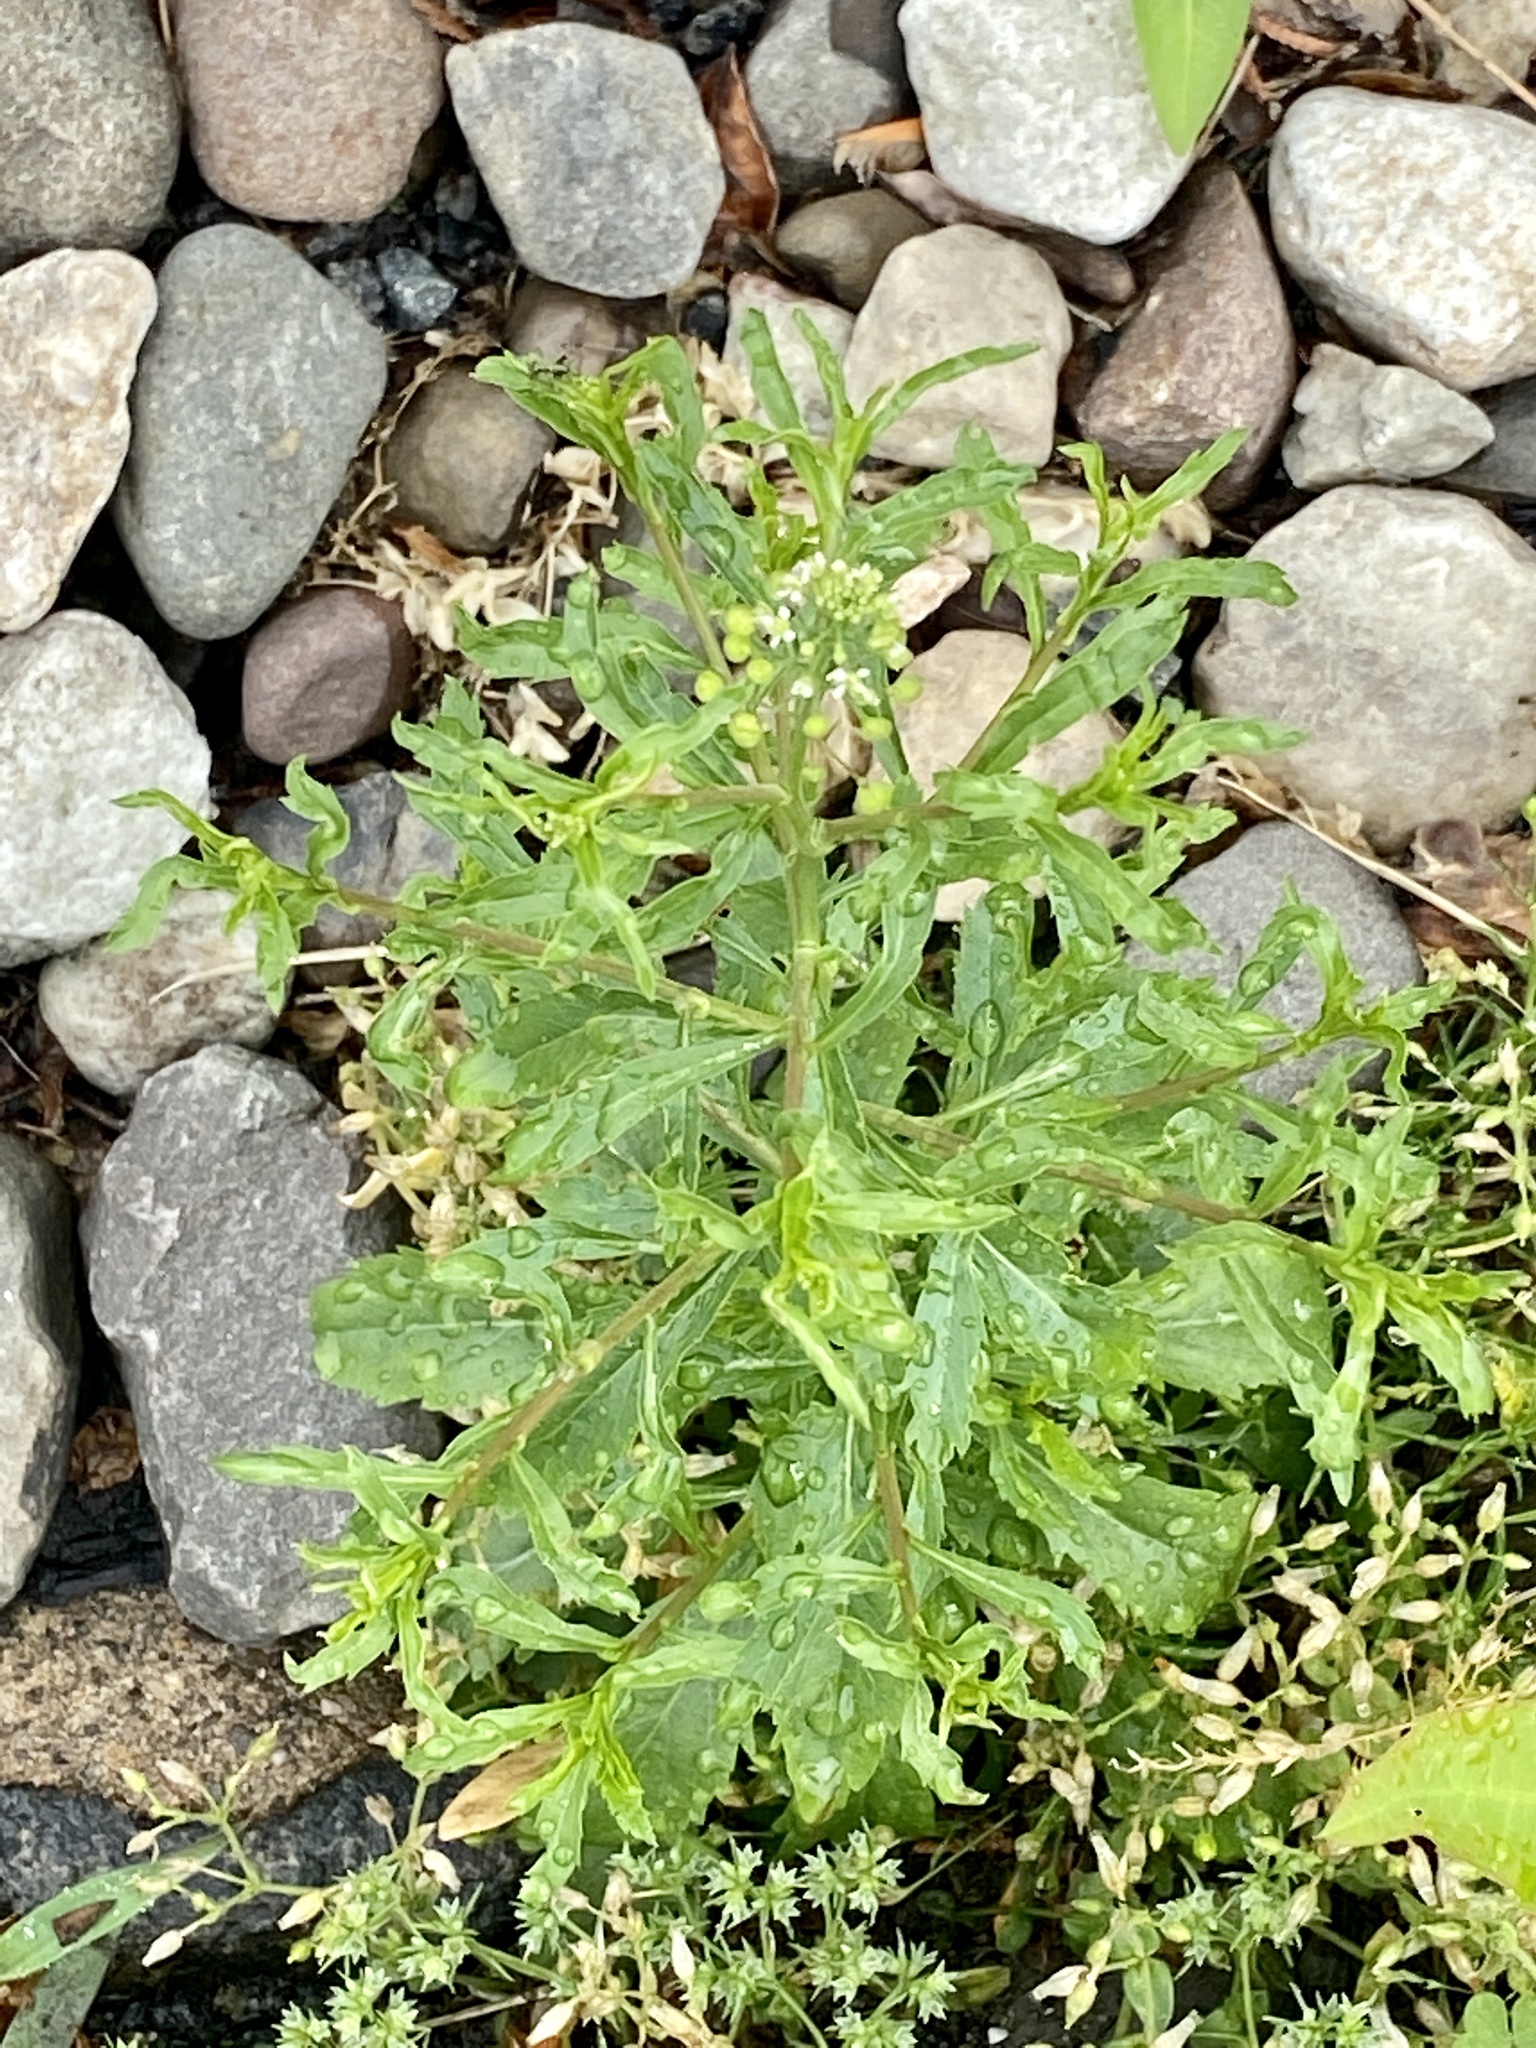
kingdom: Plantae
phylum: Tracheophyta
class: Magnoliopsida
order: Brassicales
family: Brassicaceae
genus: Lepidium
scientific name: Lepidium virginicum
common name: Least pepperwort
